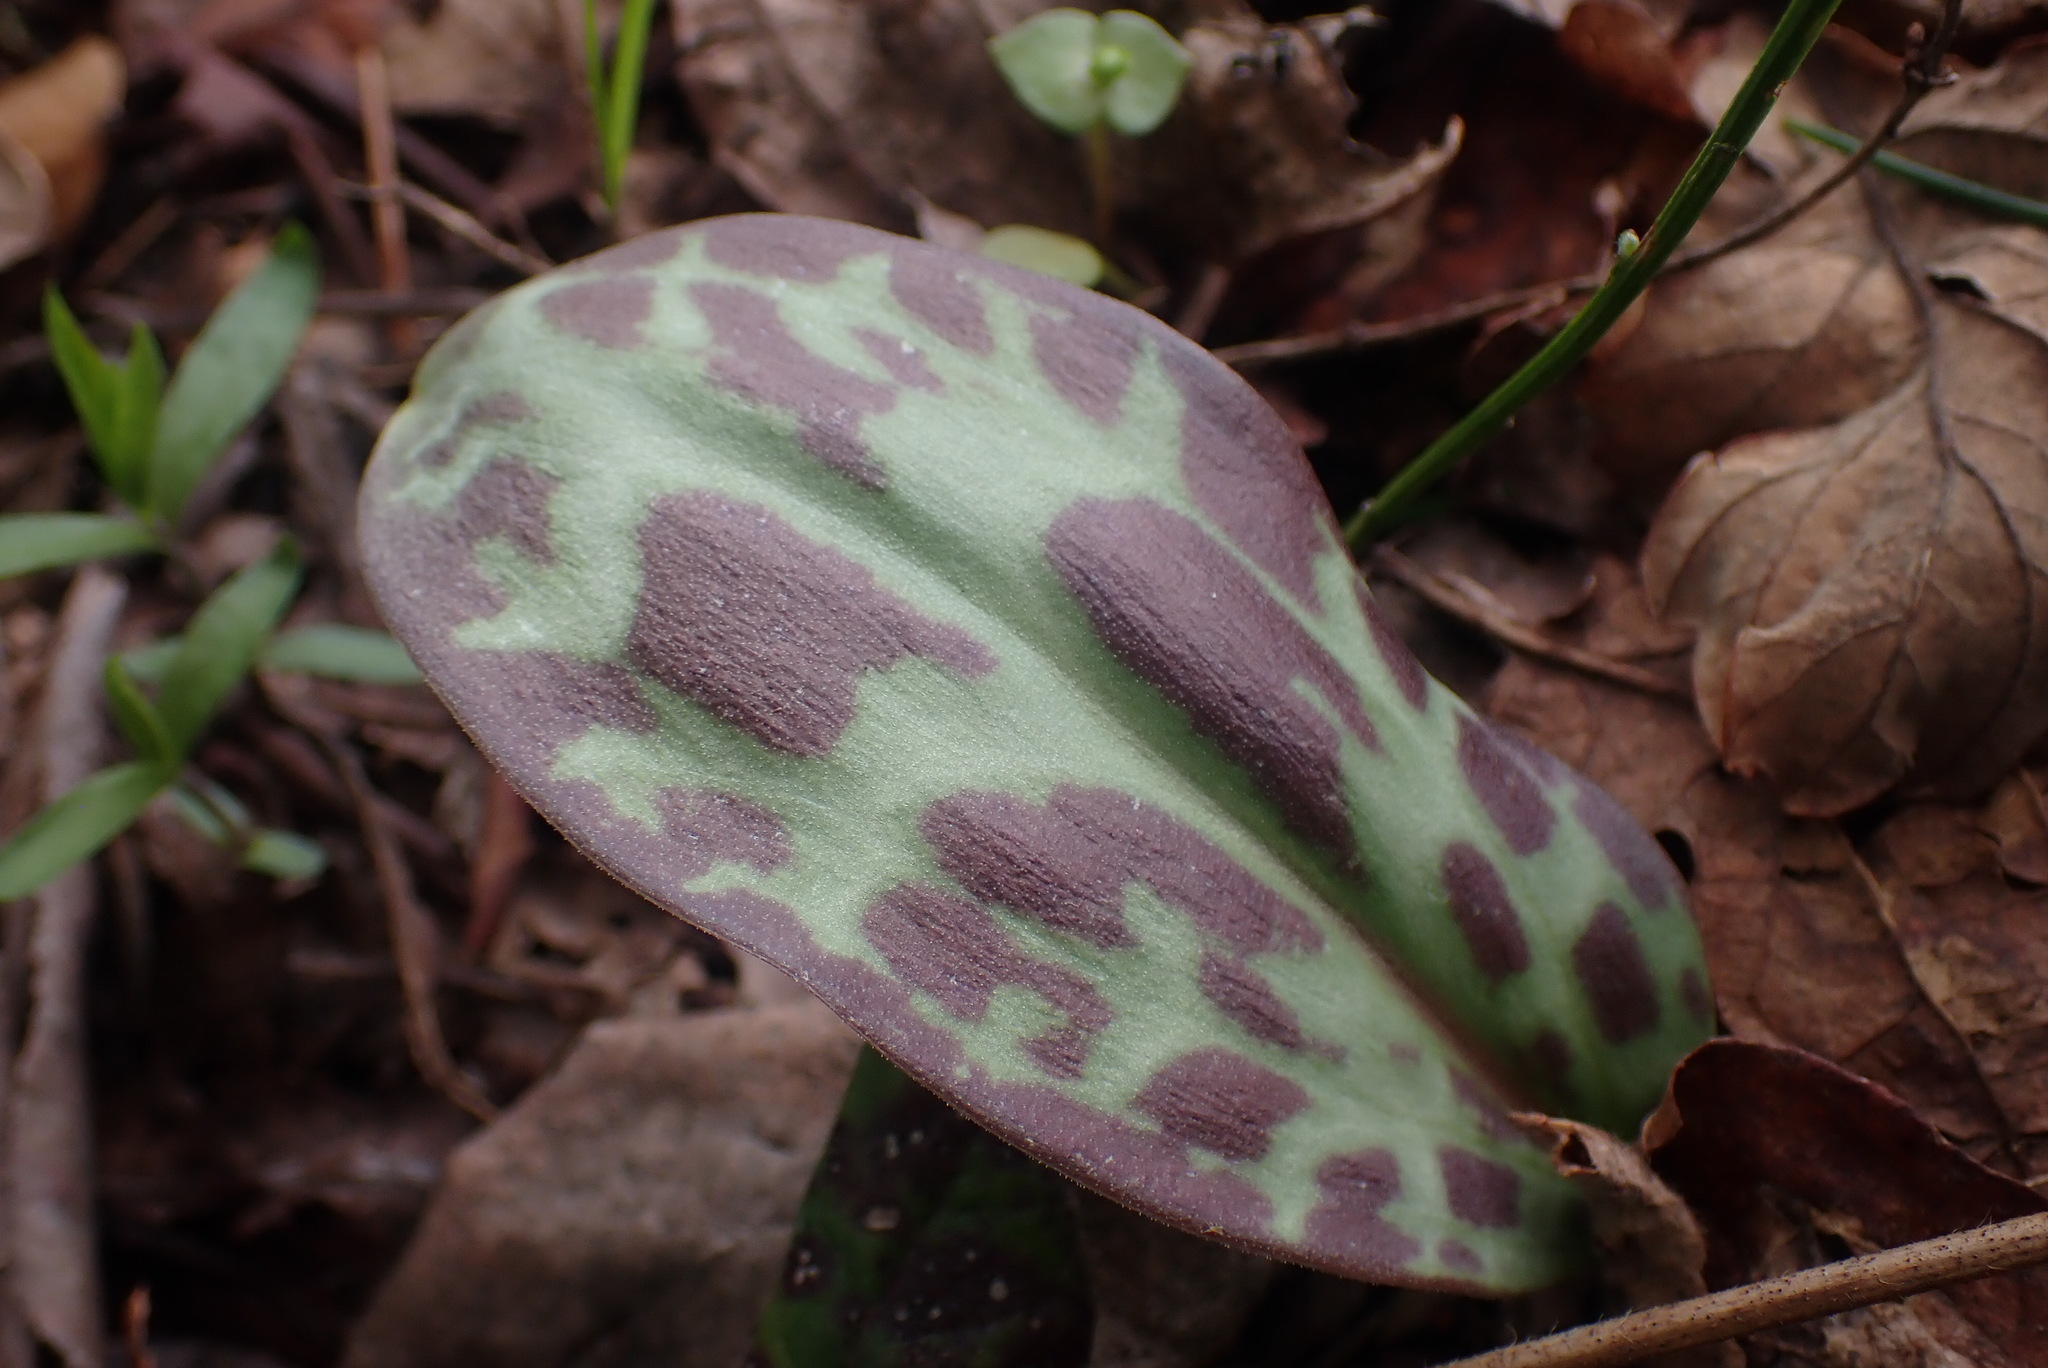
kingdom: Plantae
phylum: Tracheophyta
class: Liliopsida
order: Liliales
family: Liliaceae
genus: Erythronium
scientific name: Erythronium oregonum
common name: Giant adder's-tongue
